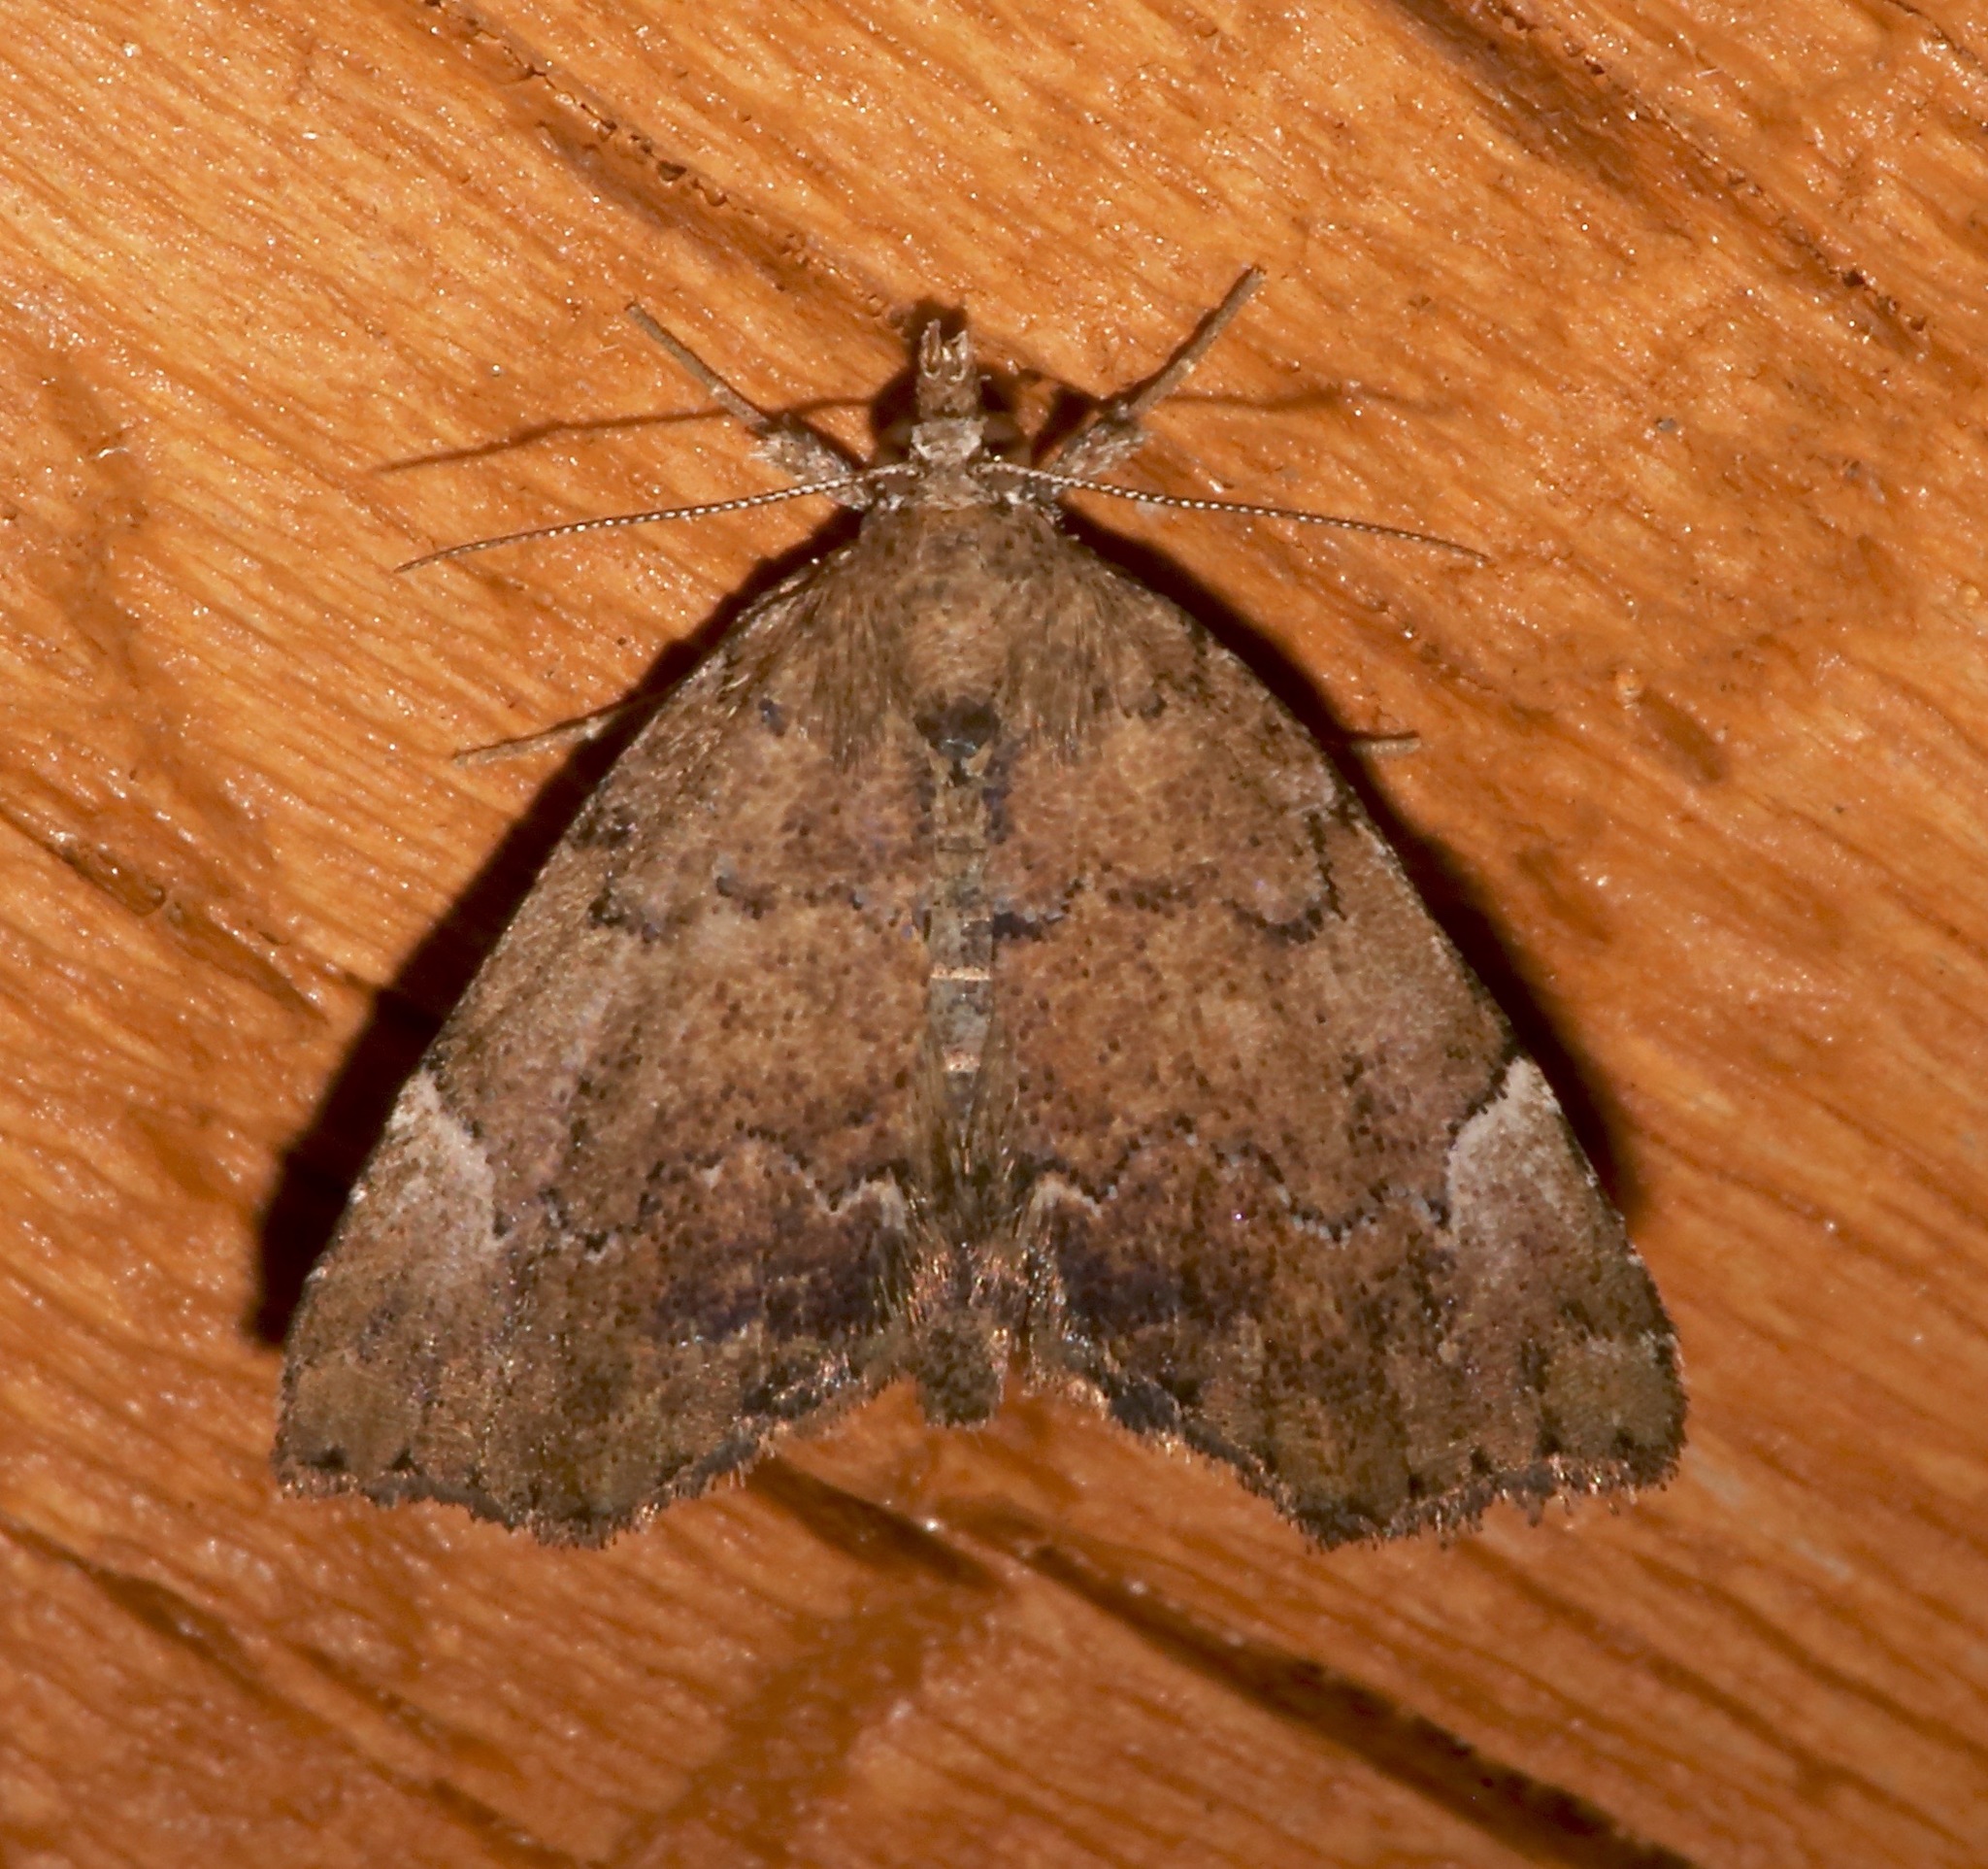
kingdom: Animalia
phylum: Arthropoda
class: Insecta
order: Lepidoptera
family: Erebidae
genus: Cutina
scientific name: Cutina aluticolor
